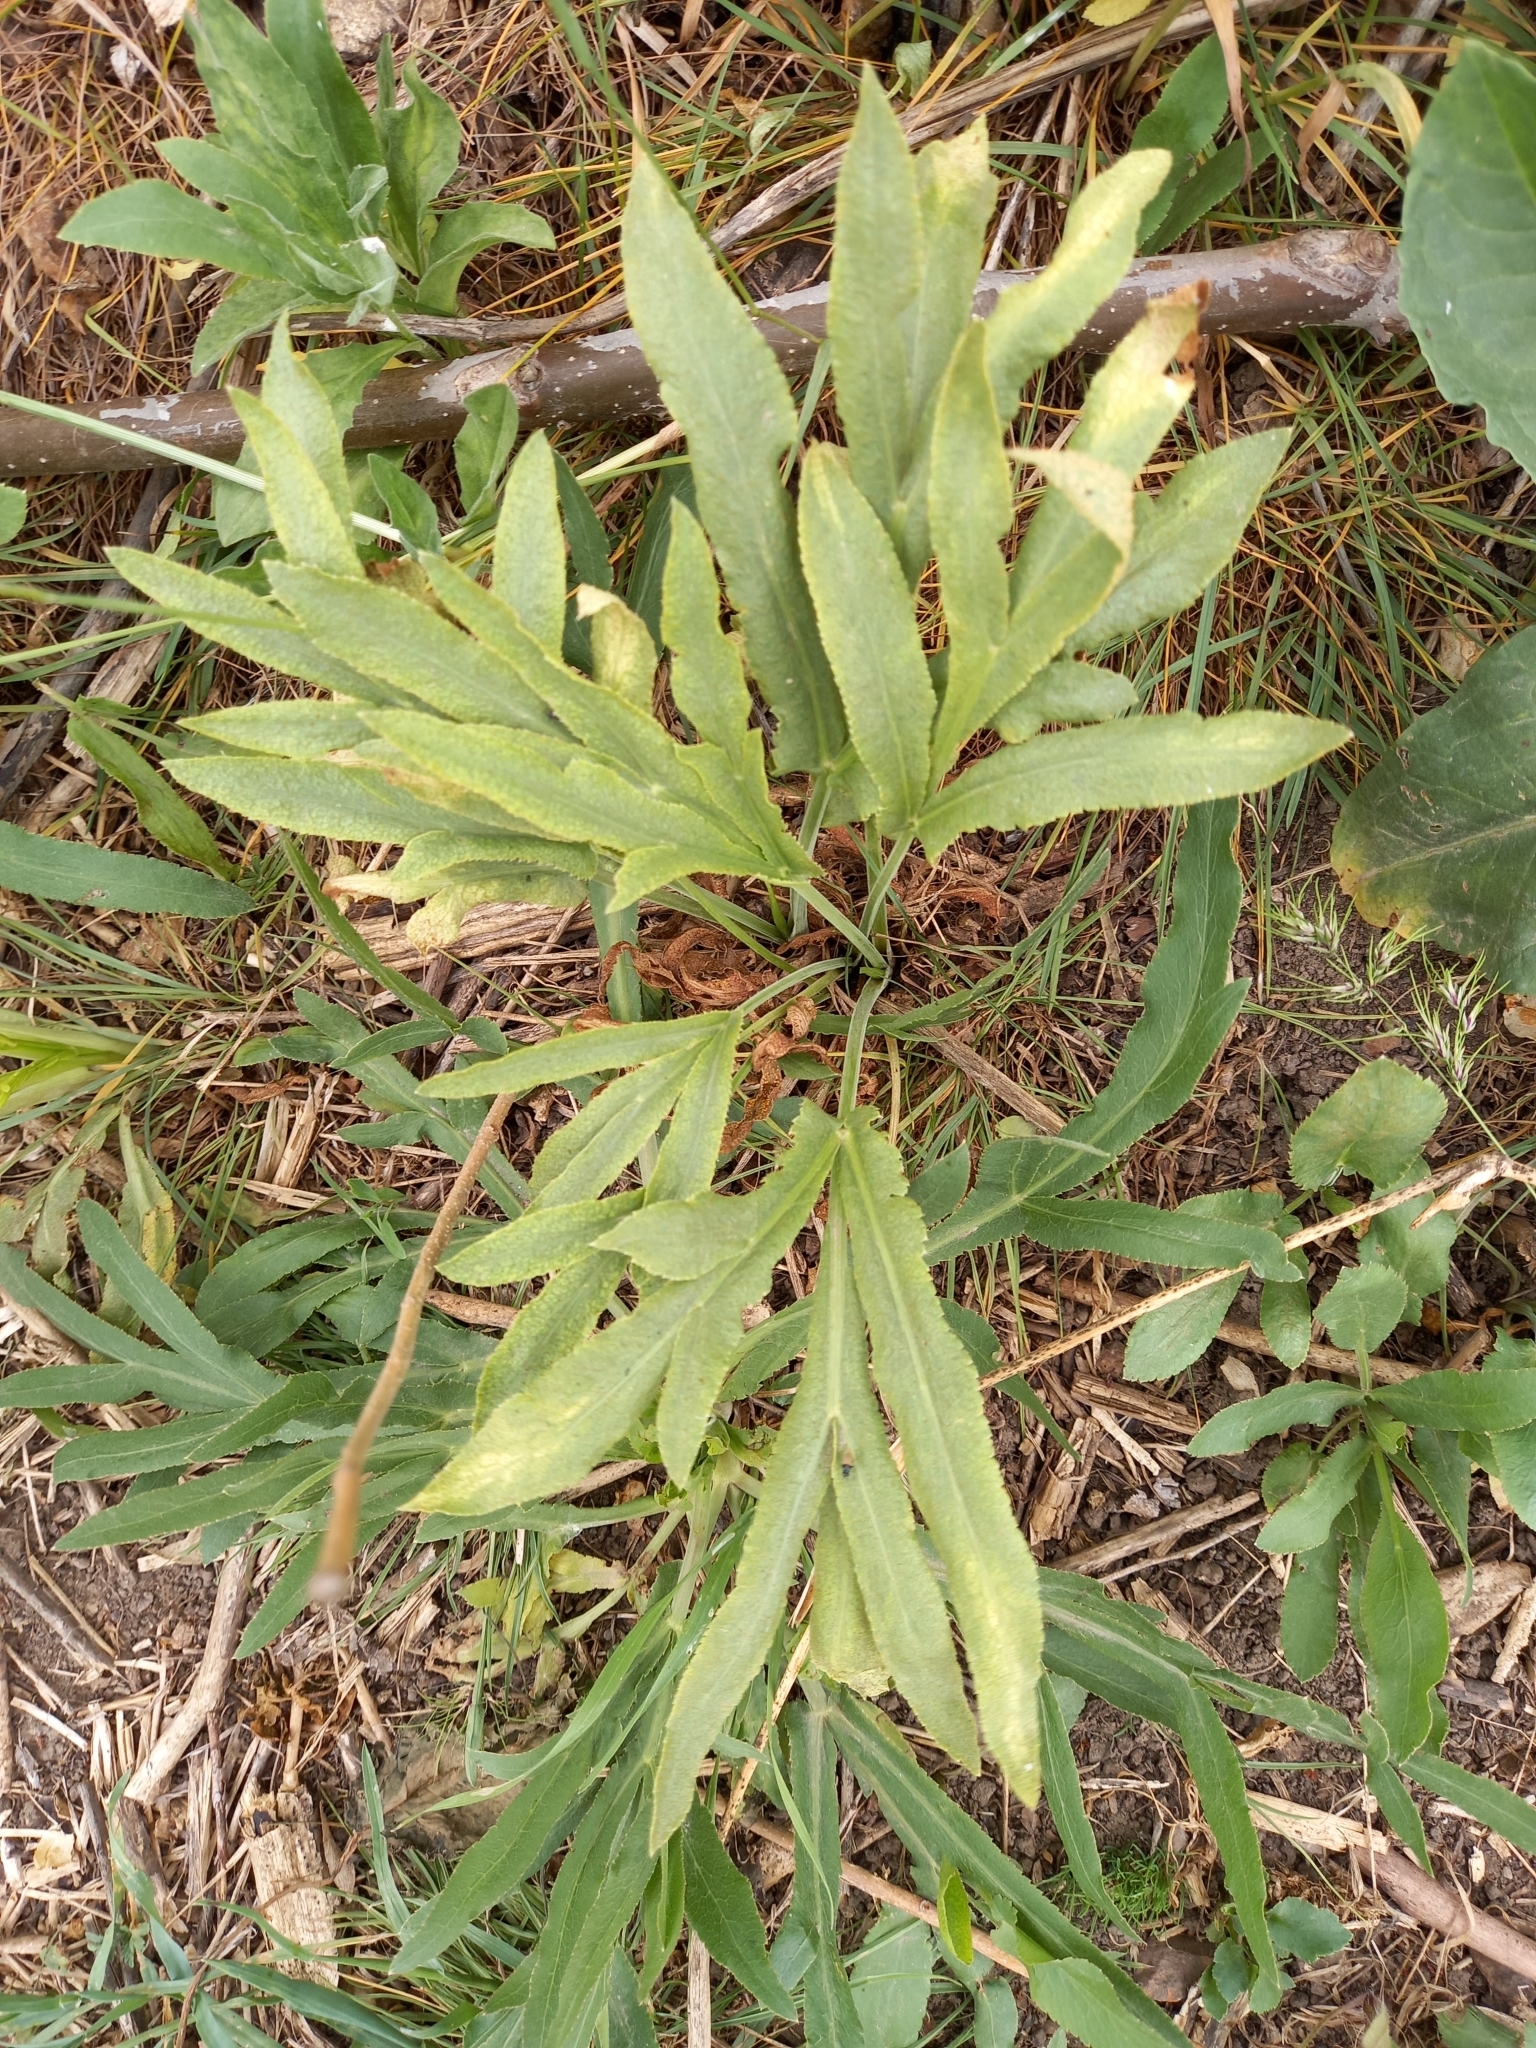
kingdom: Plantae
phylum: Tracheophyta
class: Magnoliopsida
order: Apiales
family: Apiaceae
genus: Falcaria
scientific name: Falcaria vulgaris
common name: Longleaf
